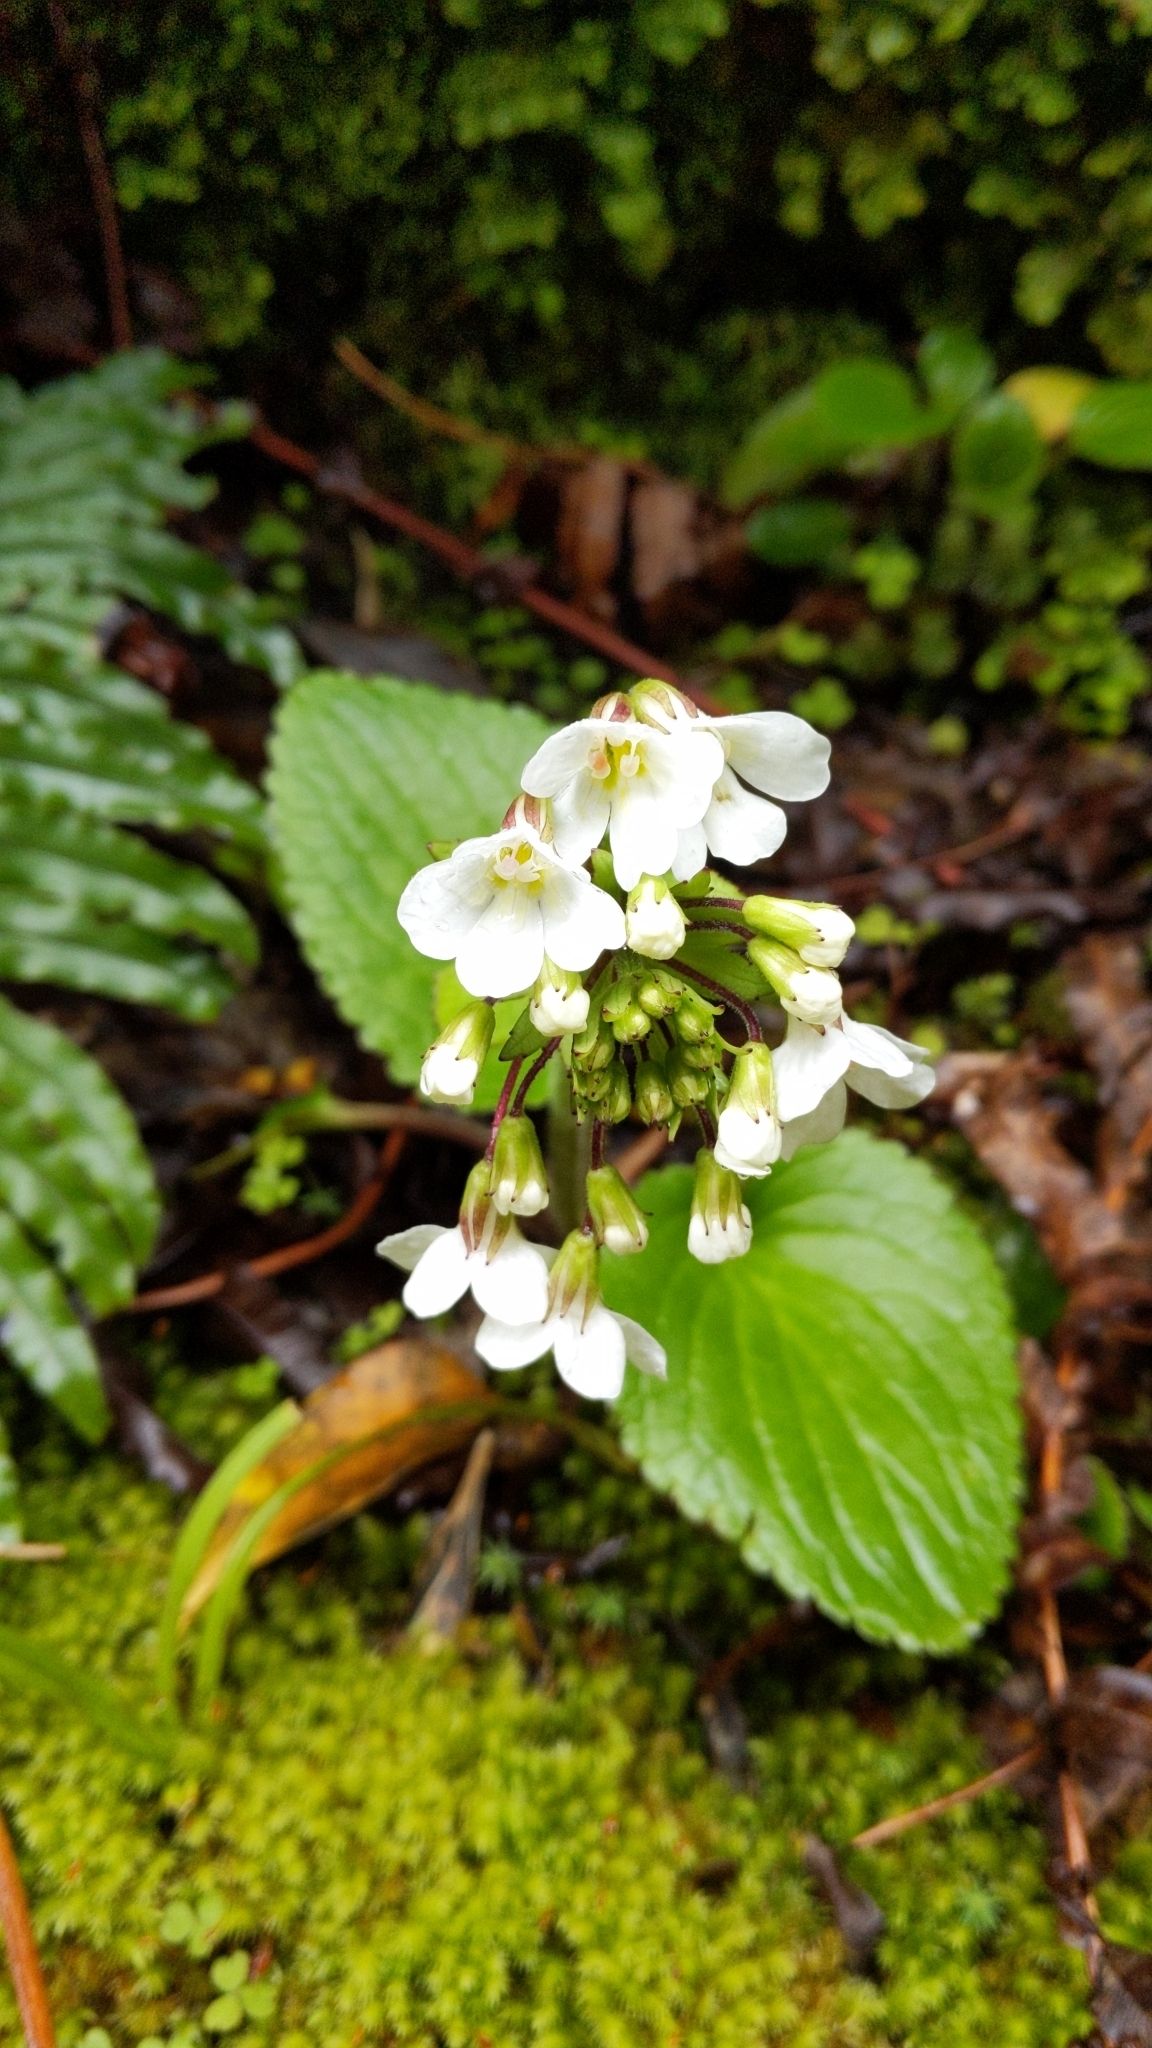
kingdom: Plantae
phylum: Tracheophyta
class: Magnoliopsida
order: Lamiales
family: Plantaginaceae
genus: Ourisia
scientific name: Ourisia macrophylla
